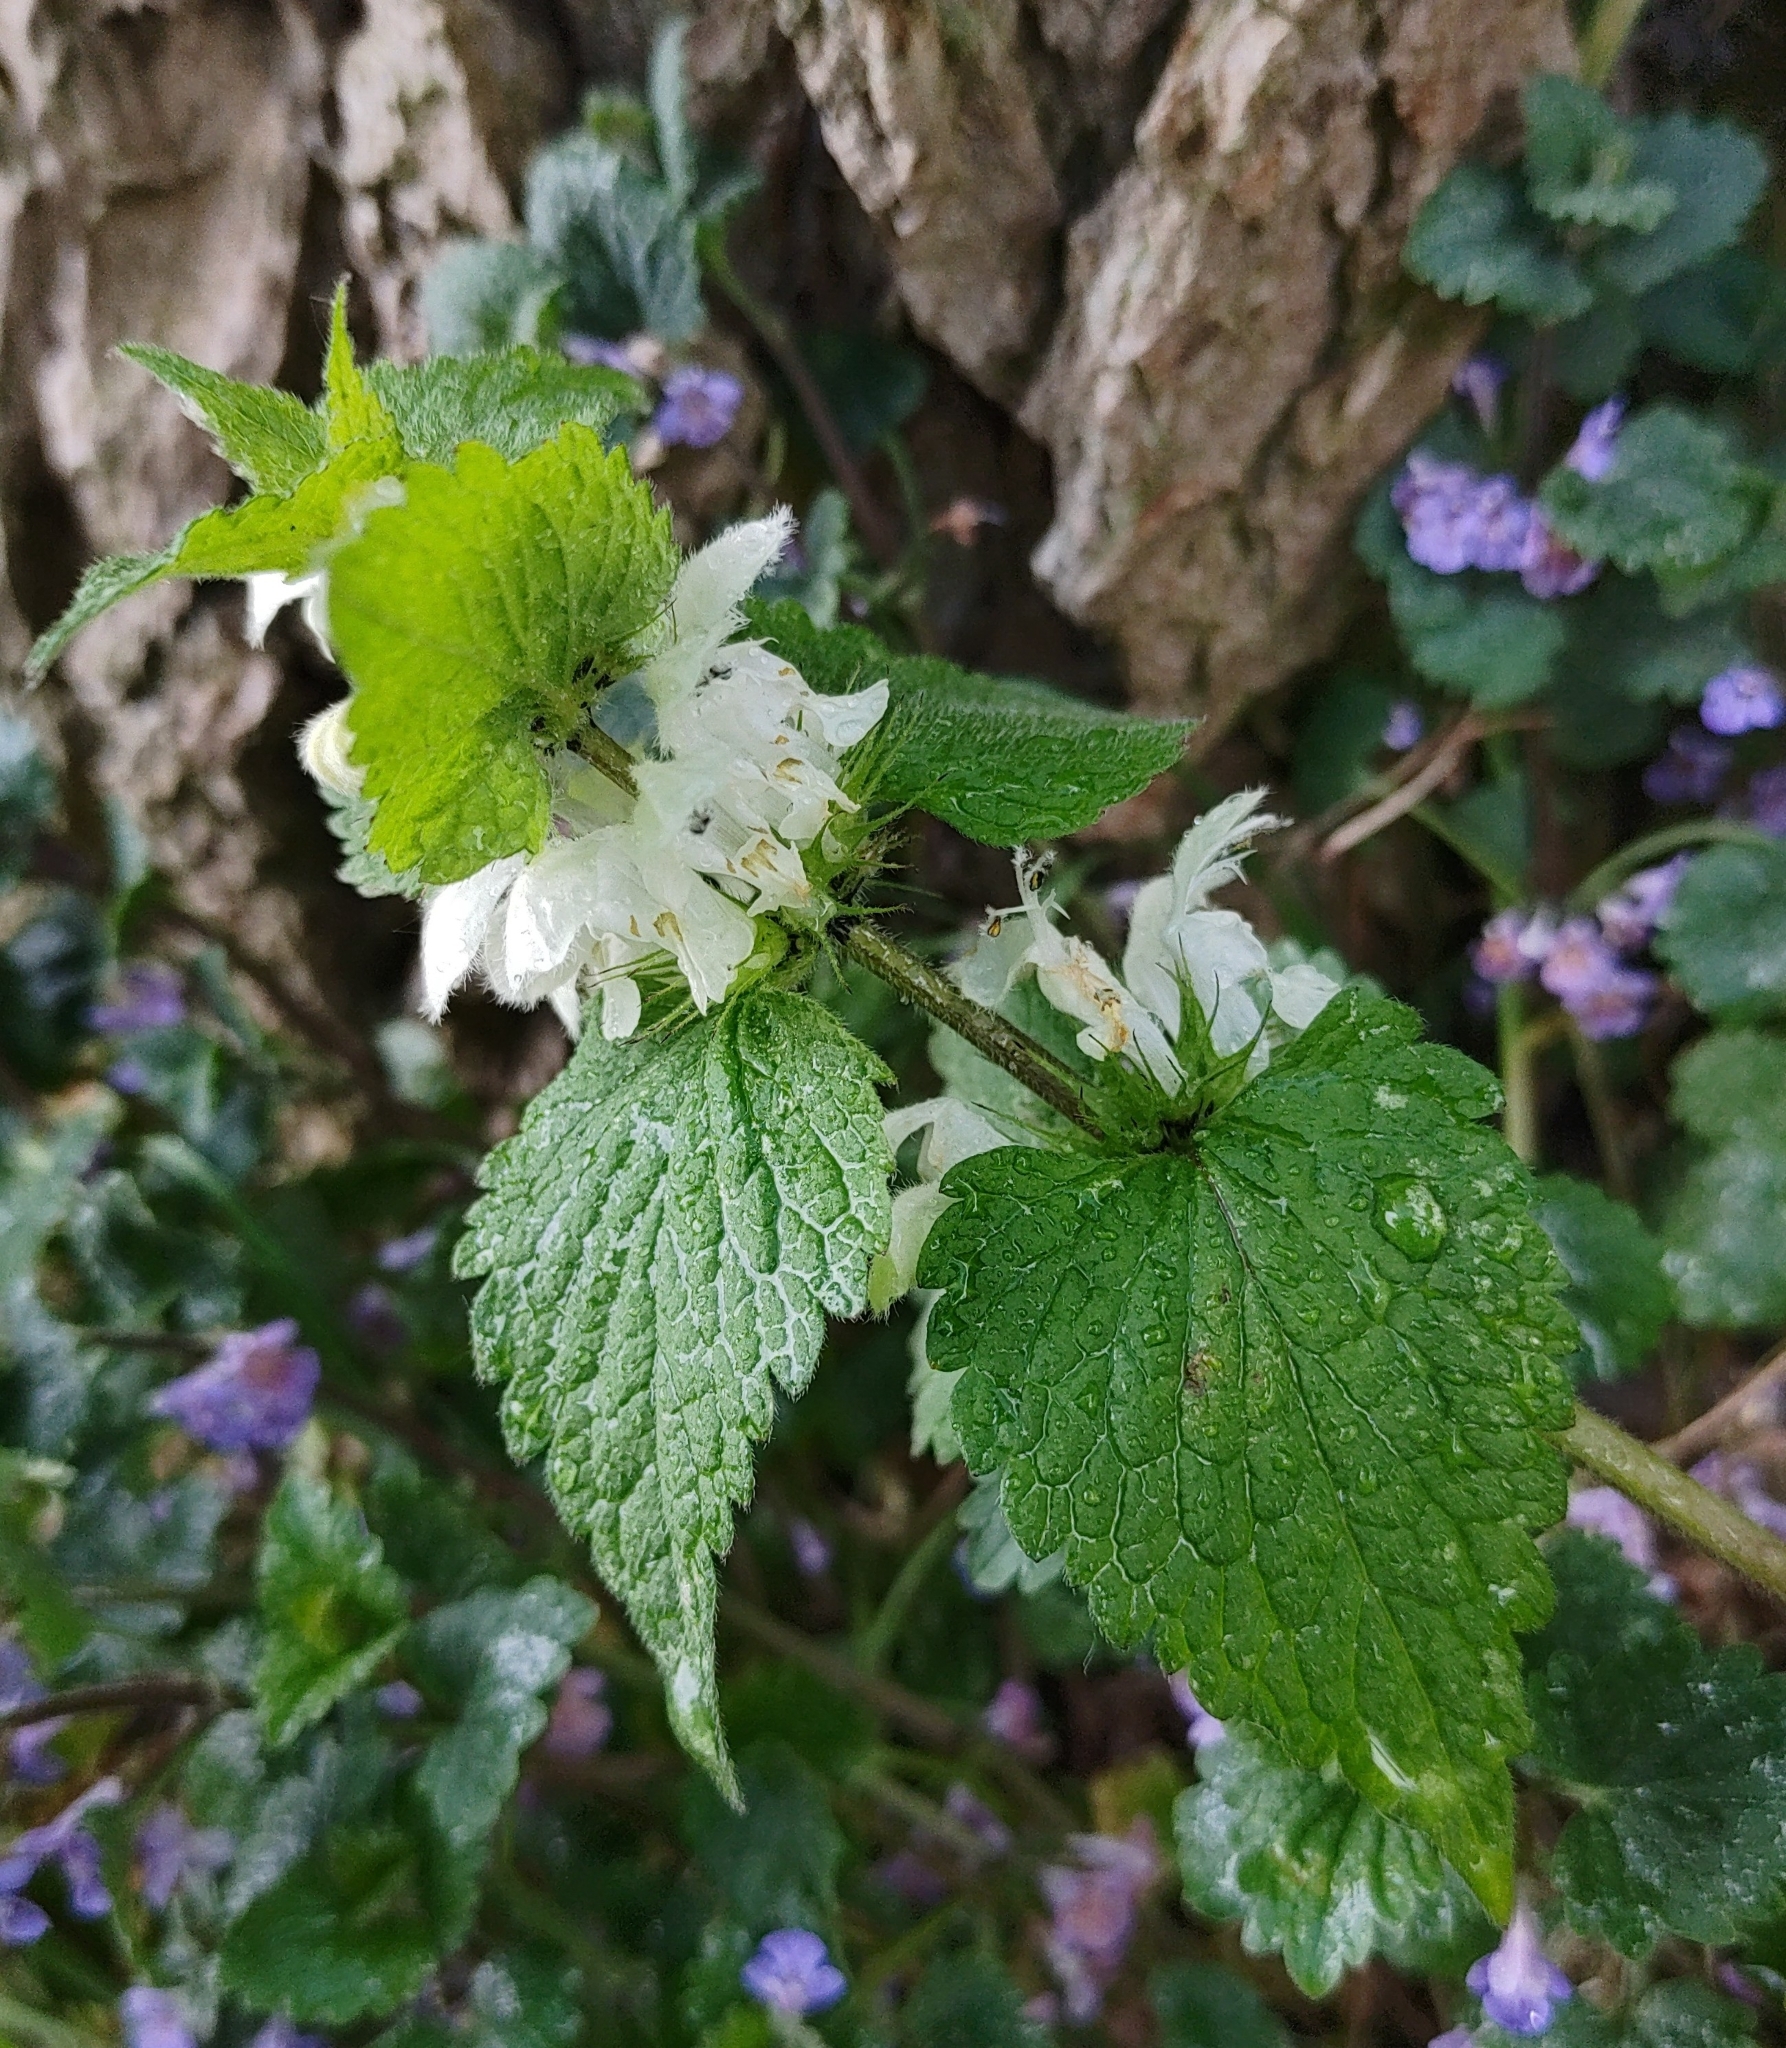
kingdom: Plantae
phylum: Tracheophyta
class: Magnoliopsida
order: Lamiales
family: Lamiaceae
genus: Lamium
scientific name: Lamium album
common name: White dead-nettle
